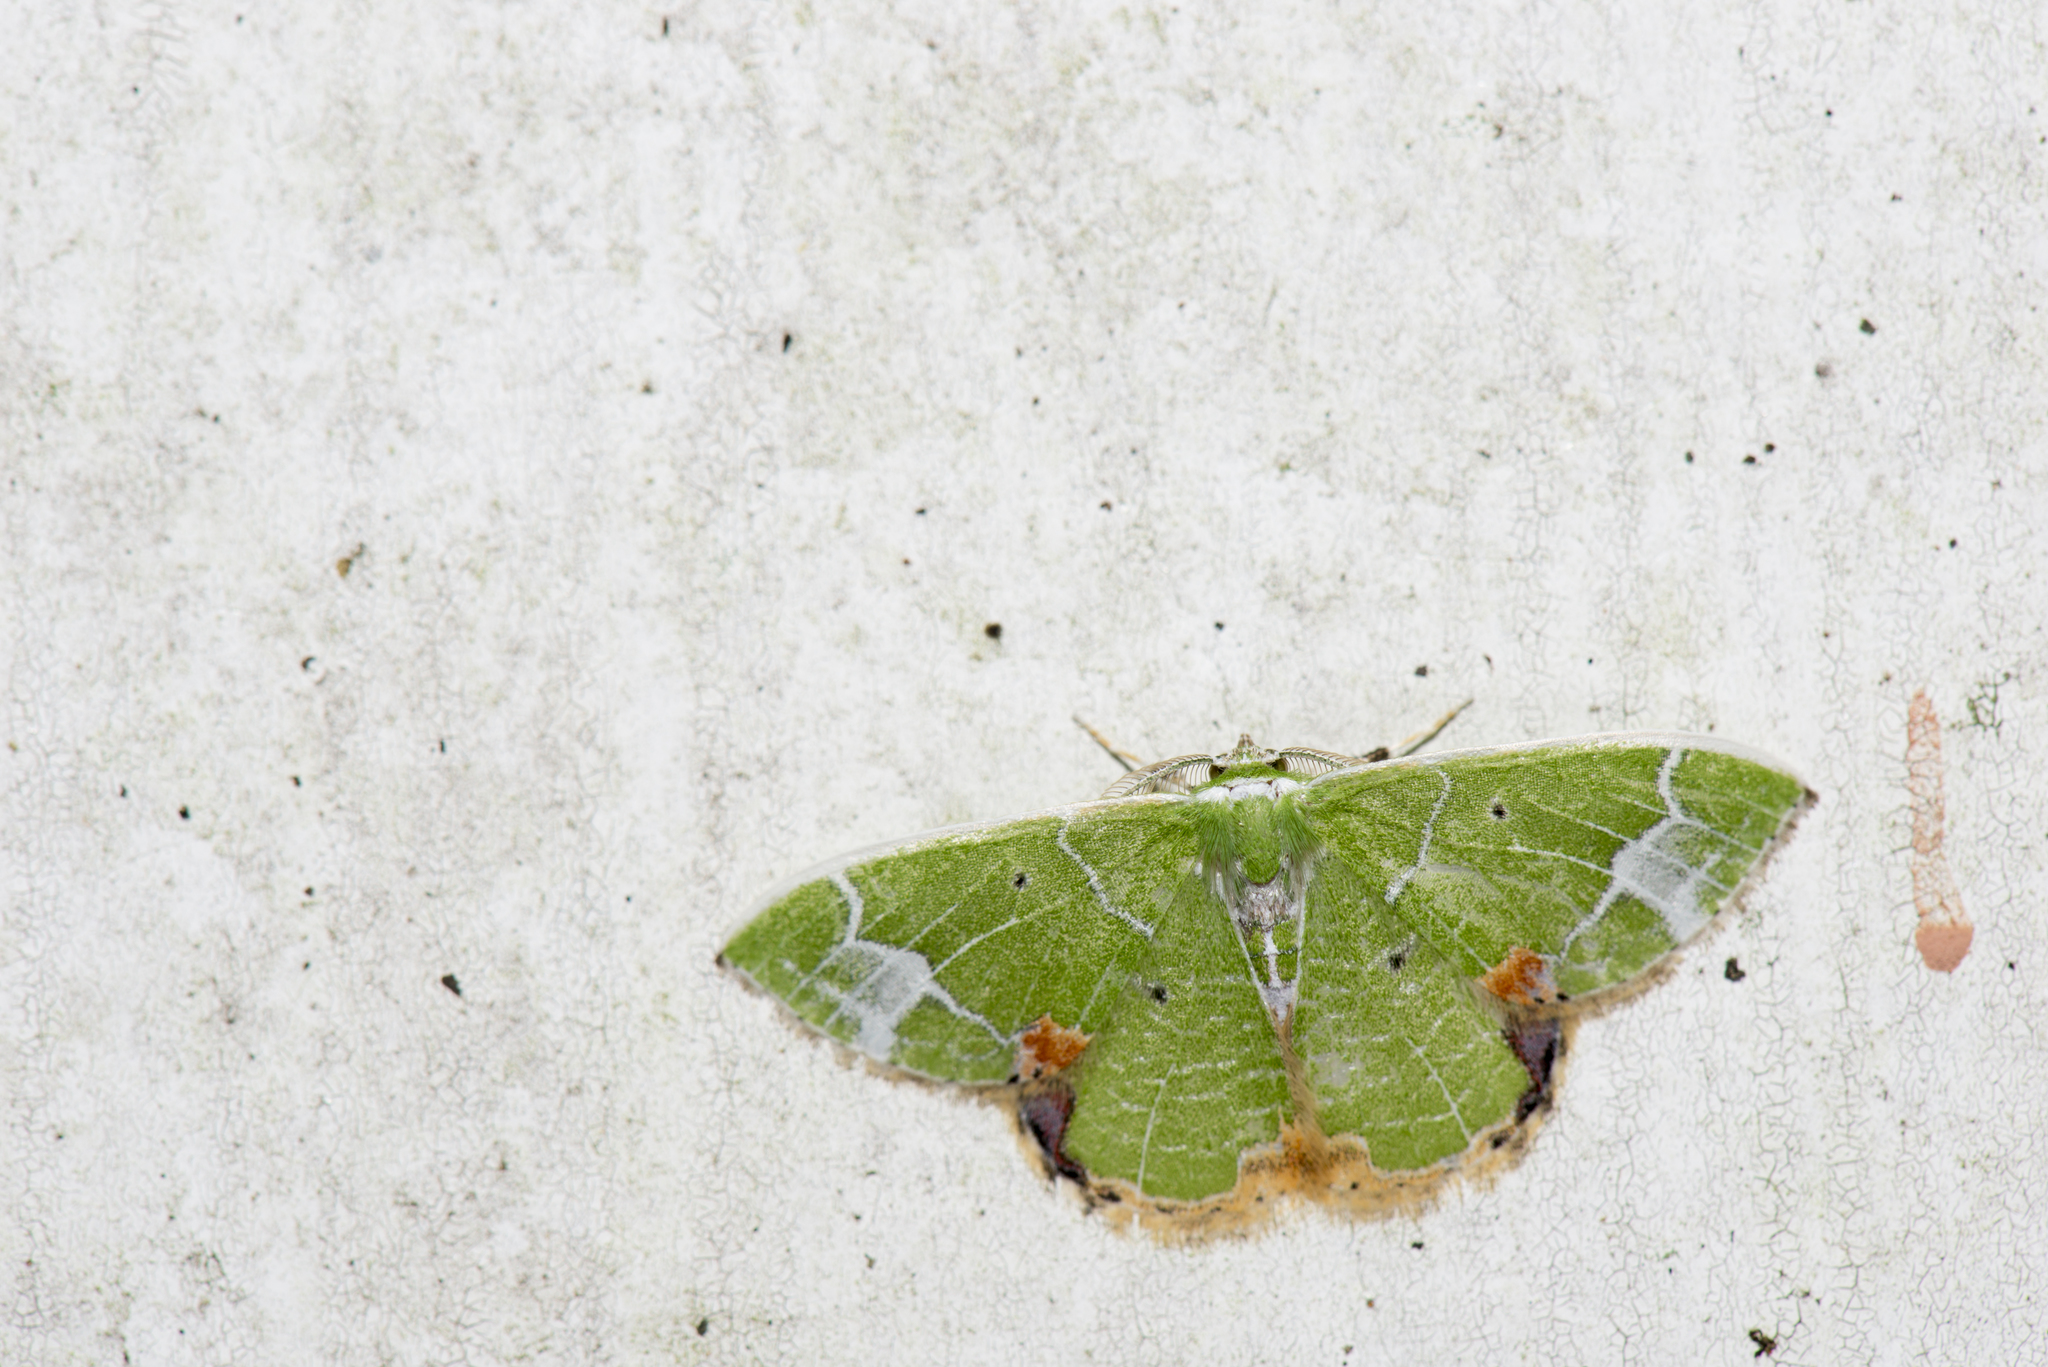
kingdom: Animalia
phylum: Arthropoda
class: Insecta
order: Lepidoptera
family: Geometridae
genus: Comibaena
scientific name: Comibaena nigromacularia
